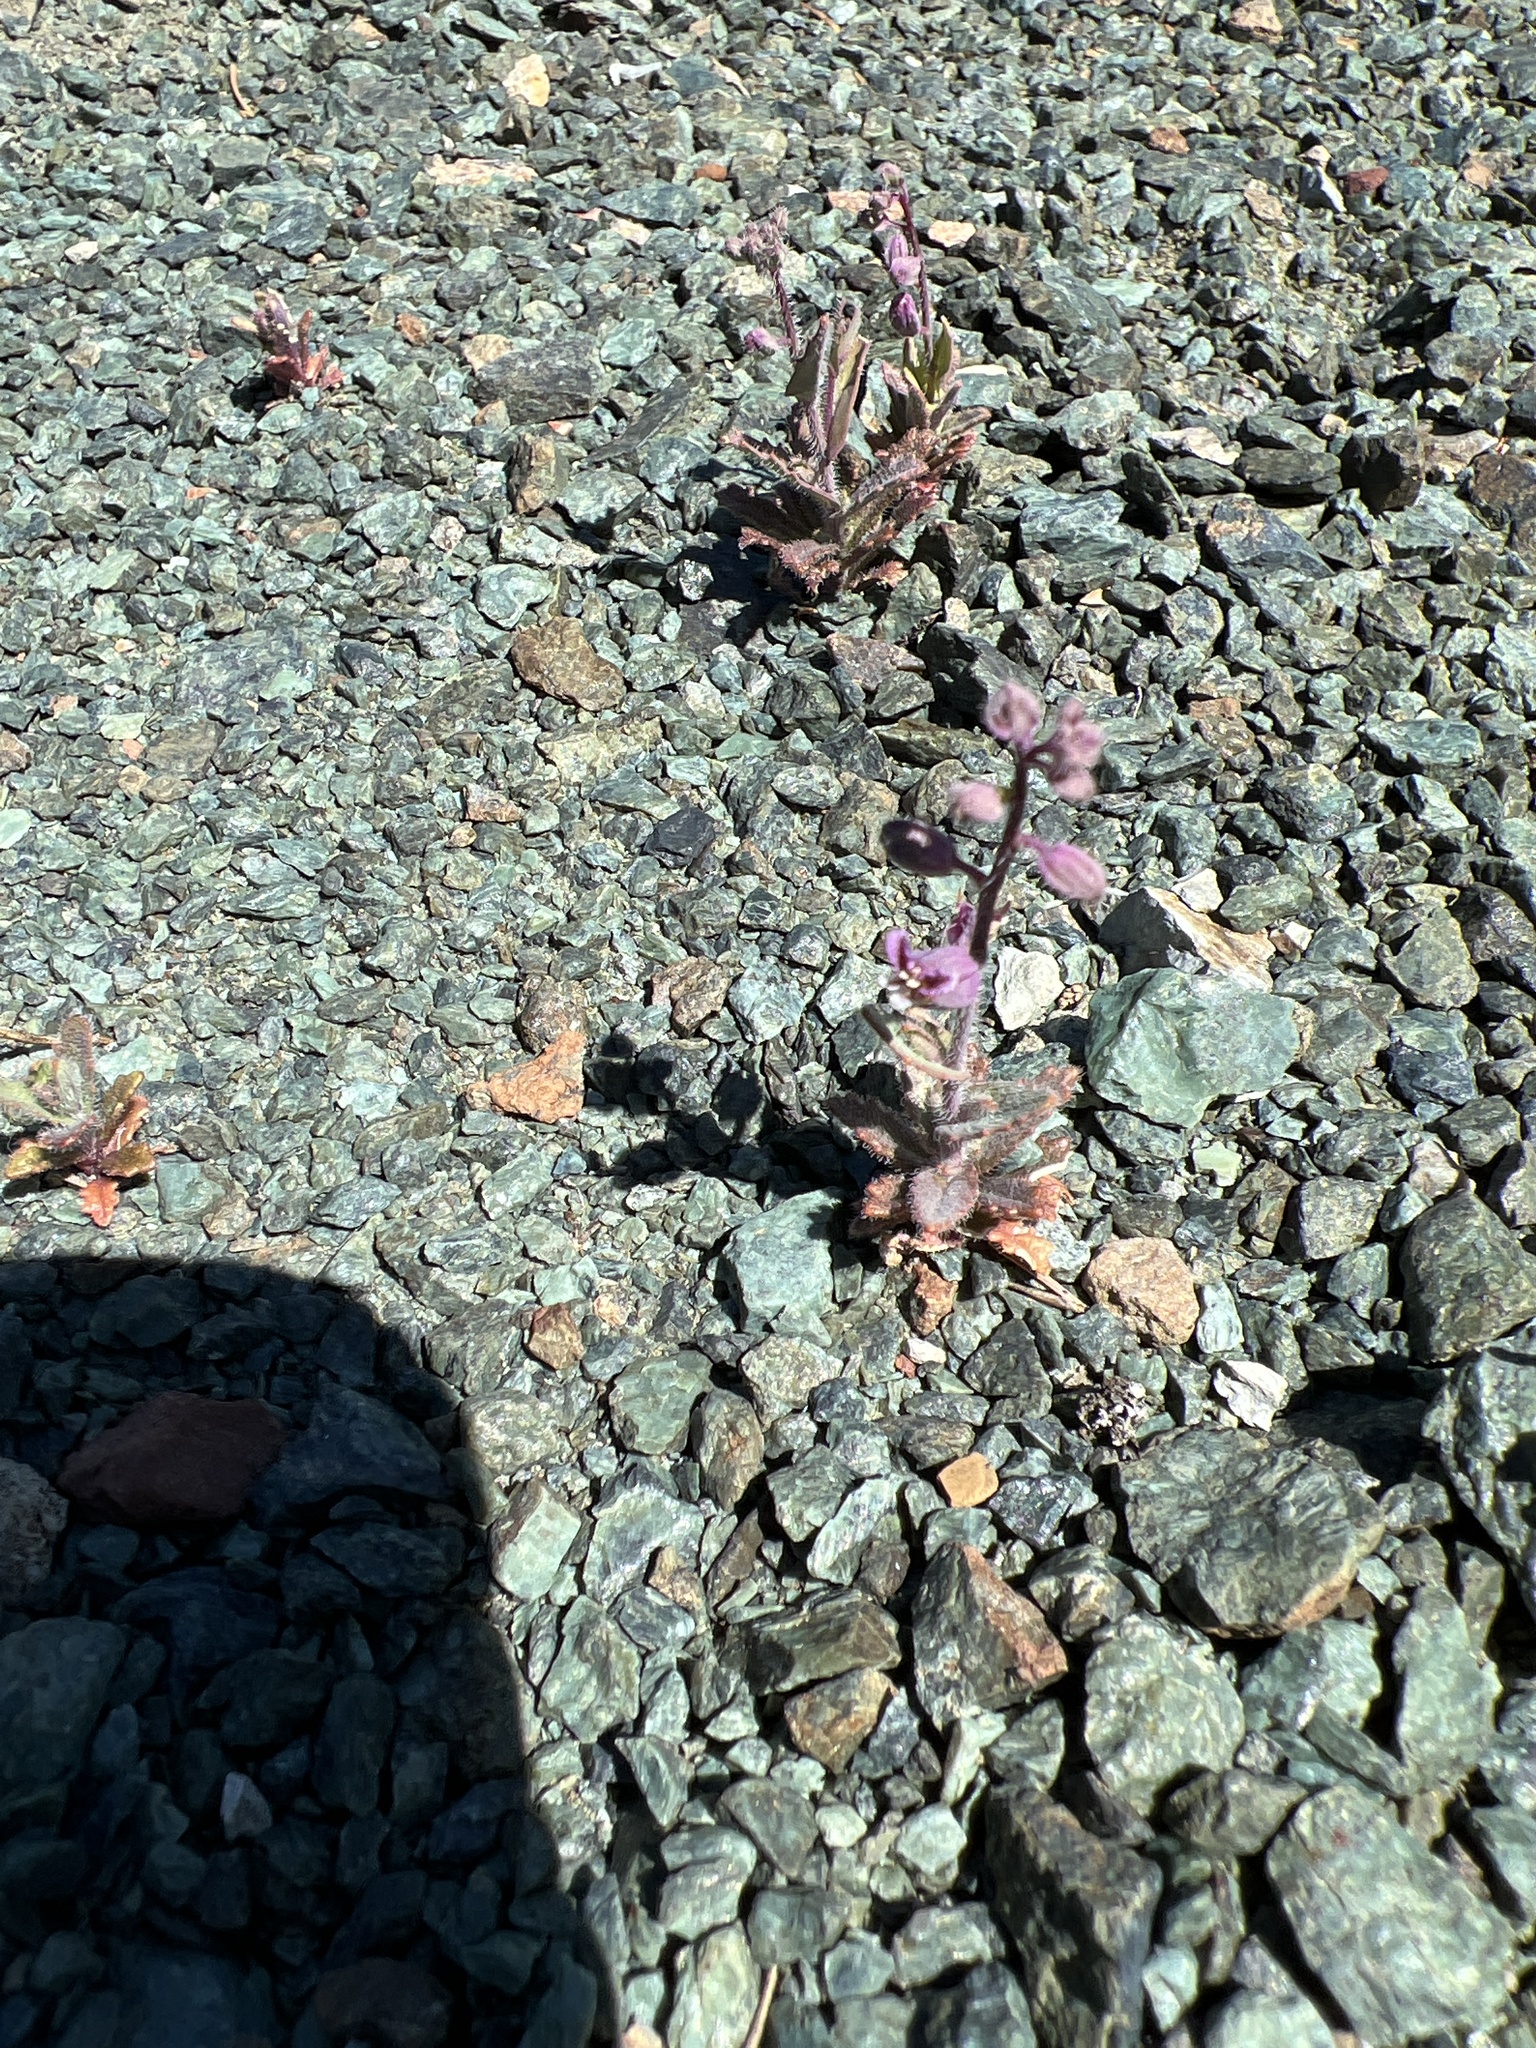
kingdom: Plantae
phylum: Tracheophyta
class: Magnoliopsida
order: Brassicales
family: Brassicaceae
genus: Streptanthus
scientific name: Streptanthus glandulosus
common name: Jewel-flower
